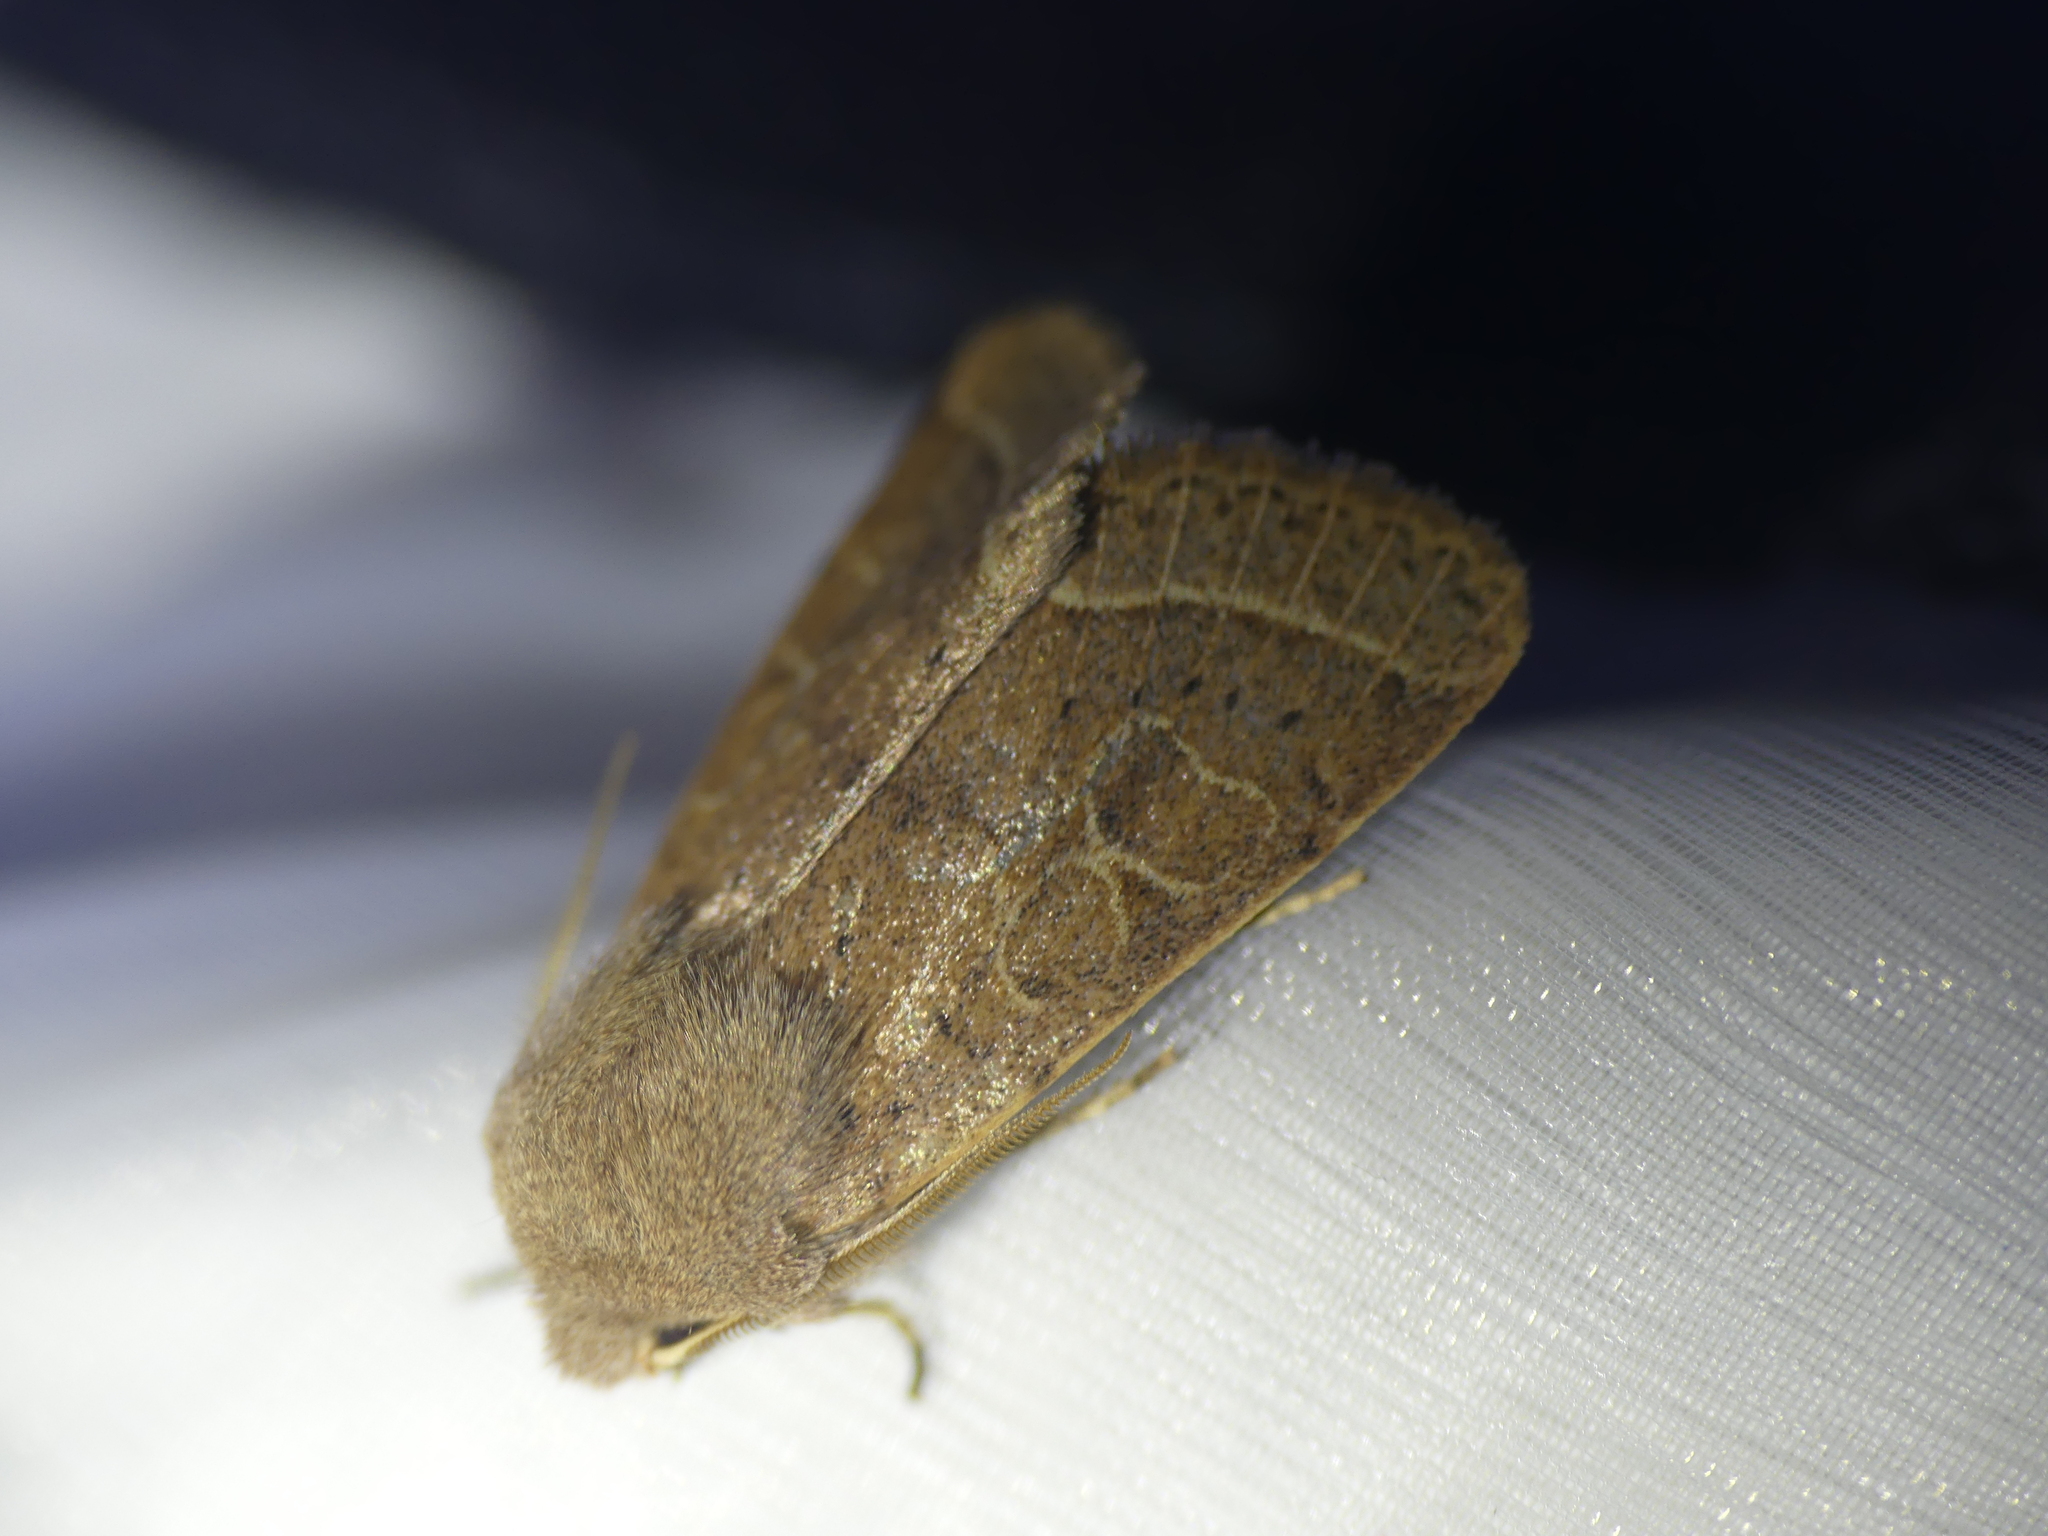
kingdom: Animalia
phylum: Arthropoda
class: Insecta
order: Lepidoptera
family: Noctuidae
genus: Orthosia
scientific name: Orthosia cerasi
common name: Common quaker
